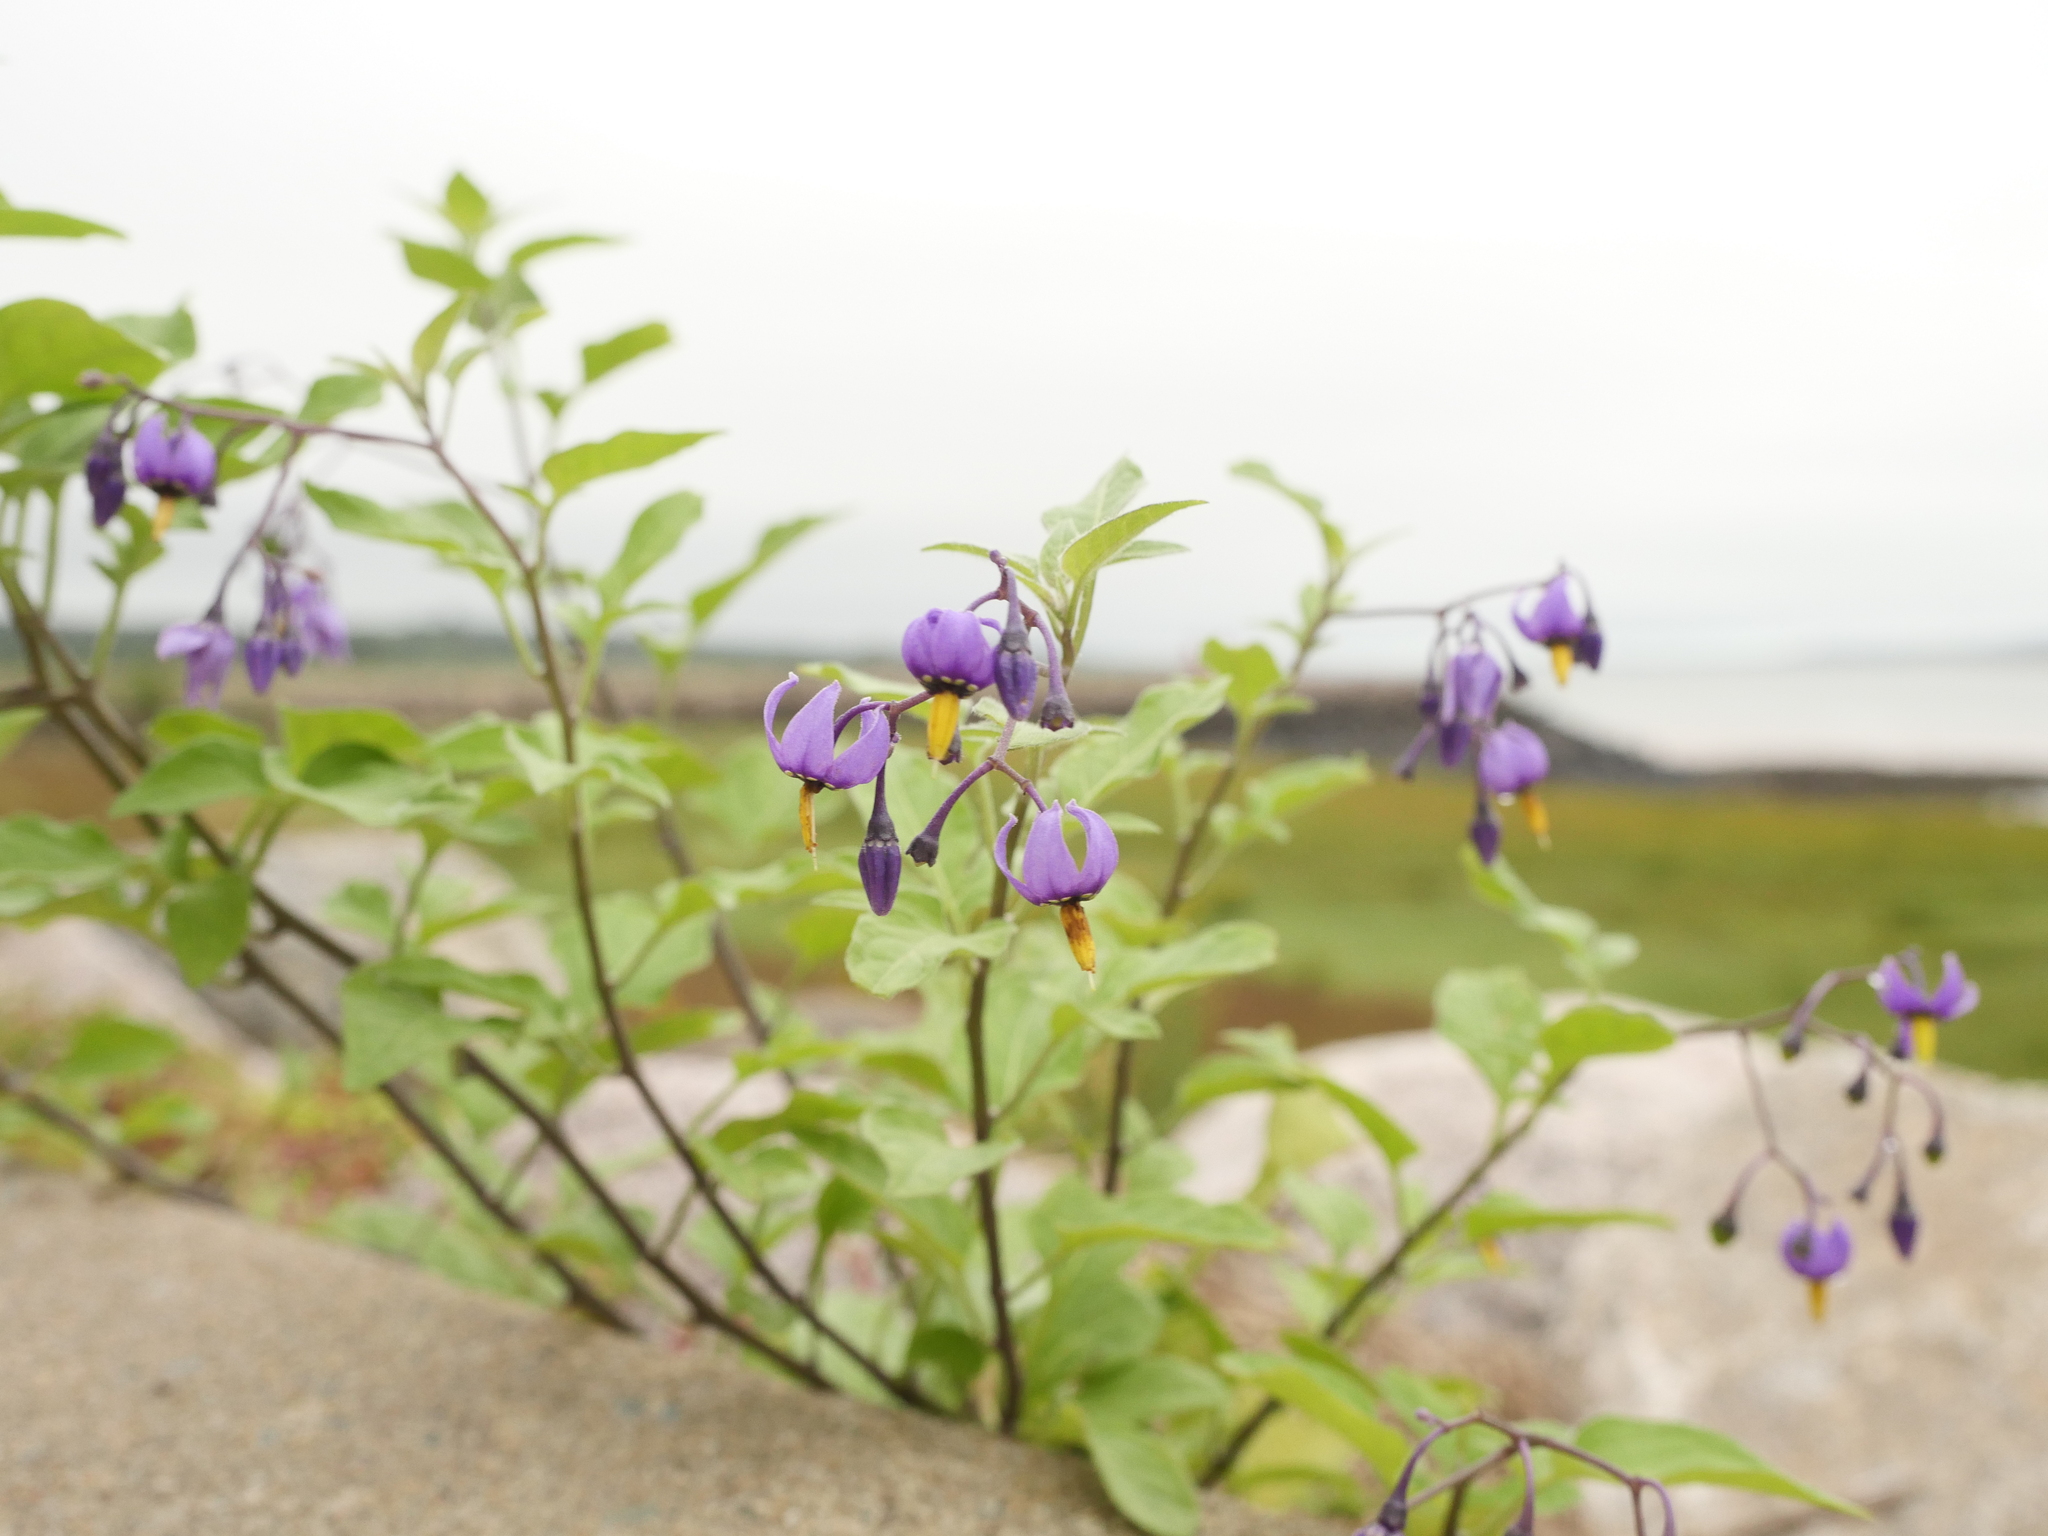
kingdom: Plantae
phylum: Tracheophyta
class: Magnoliopsida
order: Solanales
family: Solanaceae
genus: Solanum
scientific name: Solanum dulcamara
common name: Climbing nightshade
